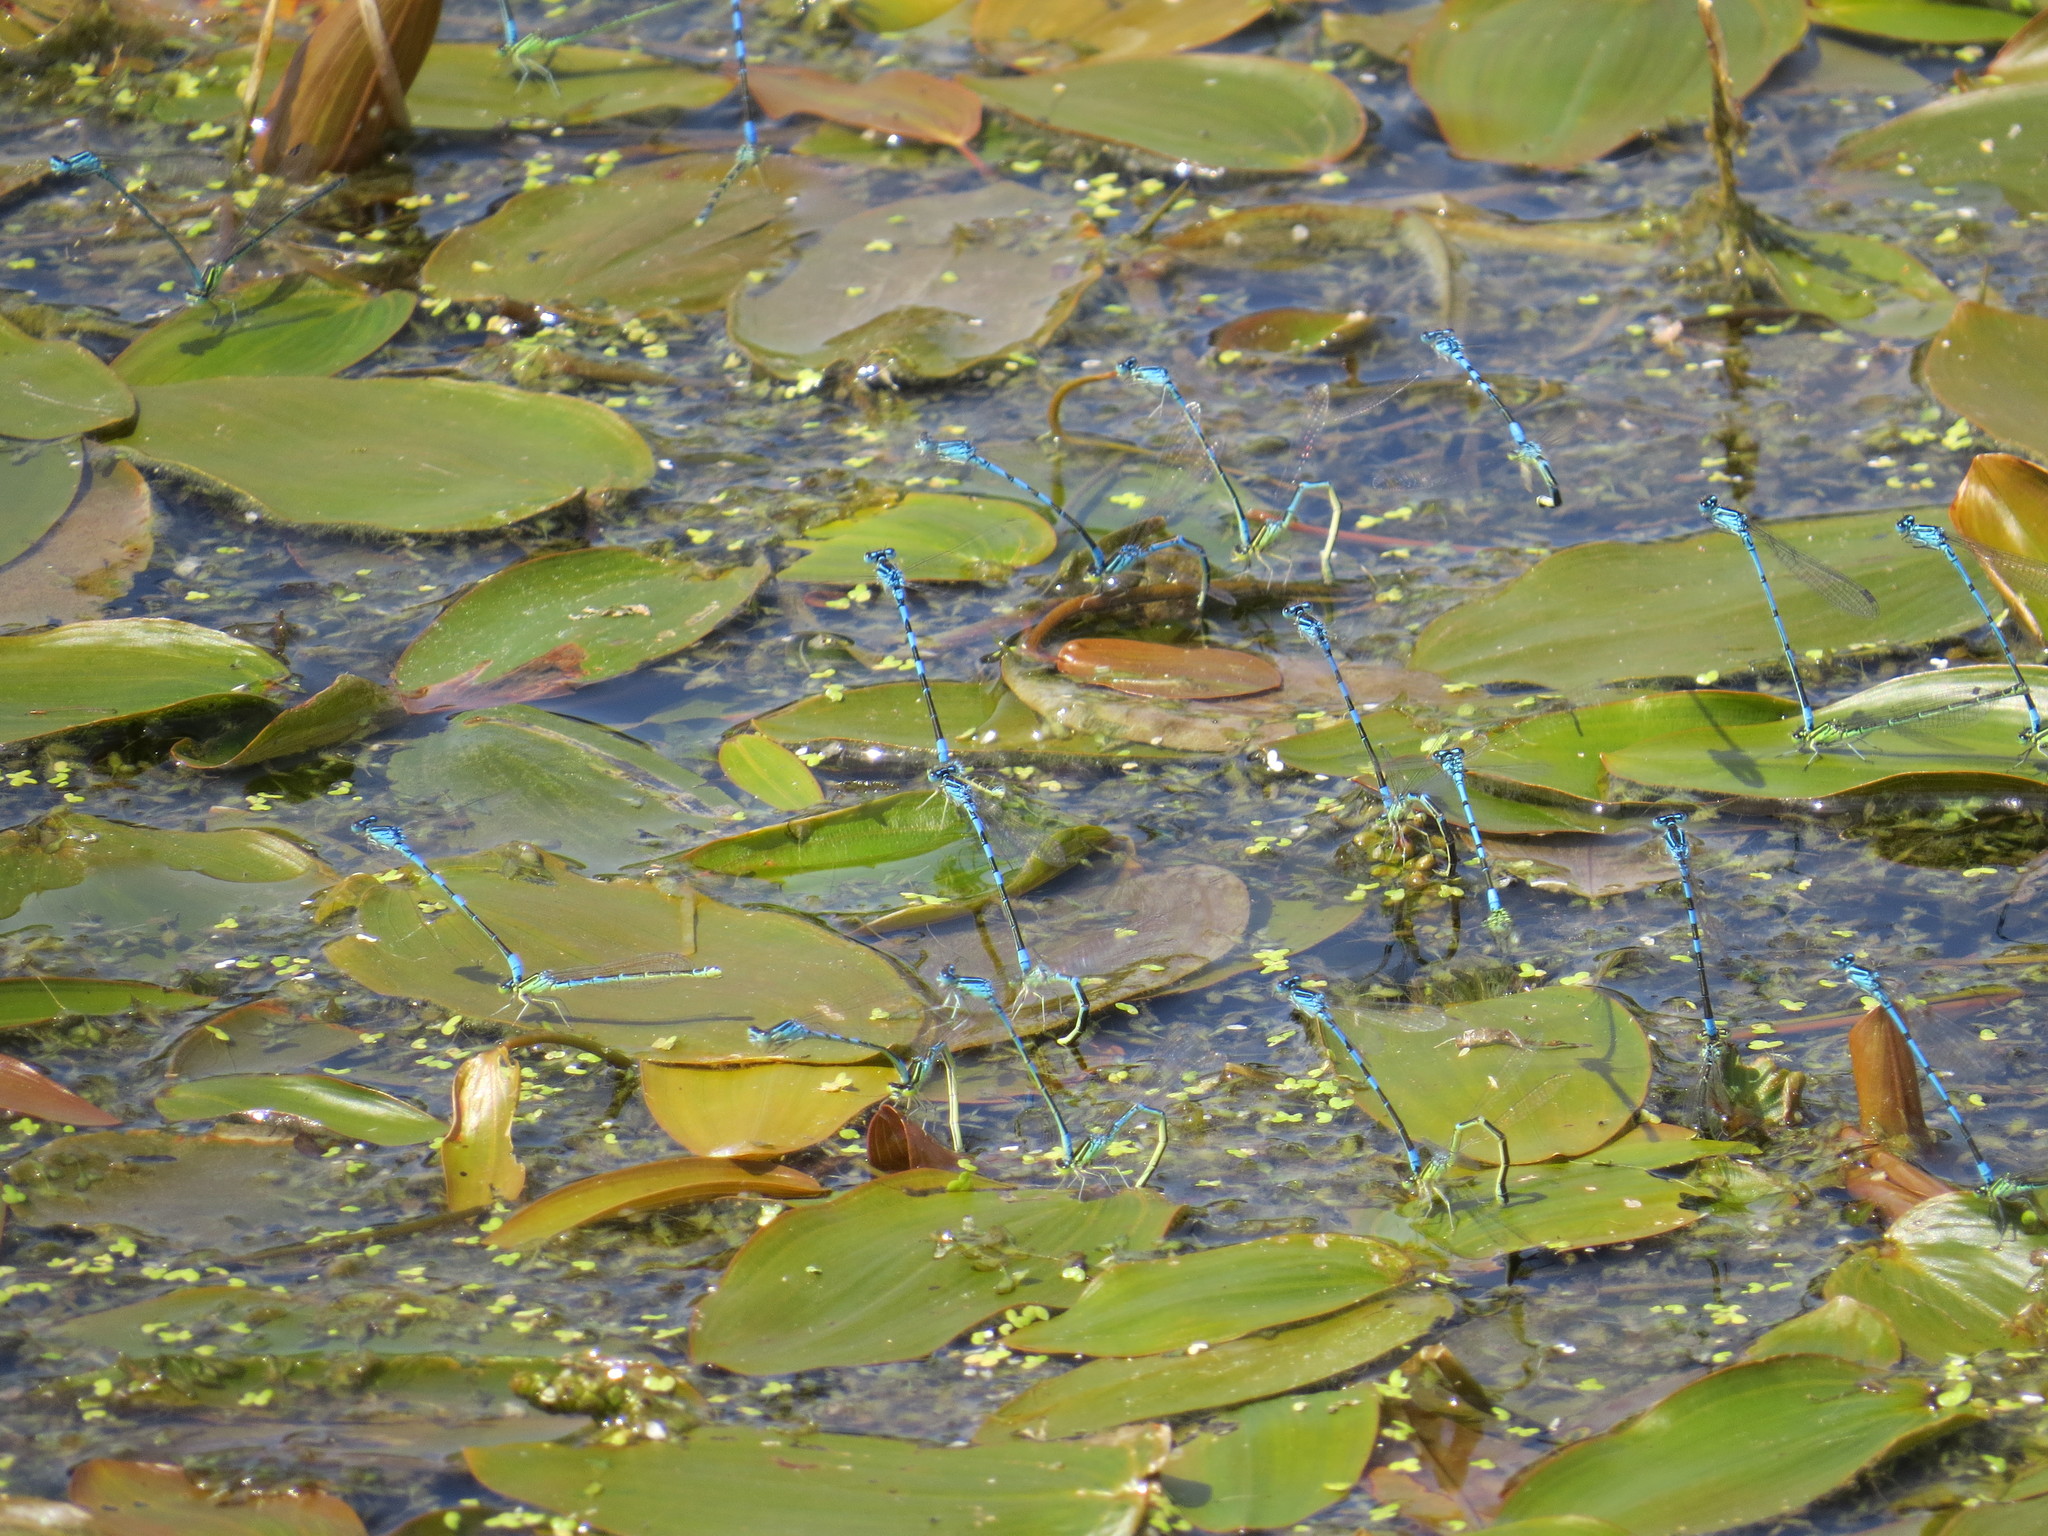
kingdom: Animalia
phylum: Arthropoda
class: Insecta
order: Odonata
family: Coenagrionidae
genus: Coenagrion
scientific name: Coenagrion
